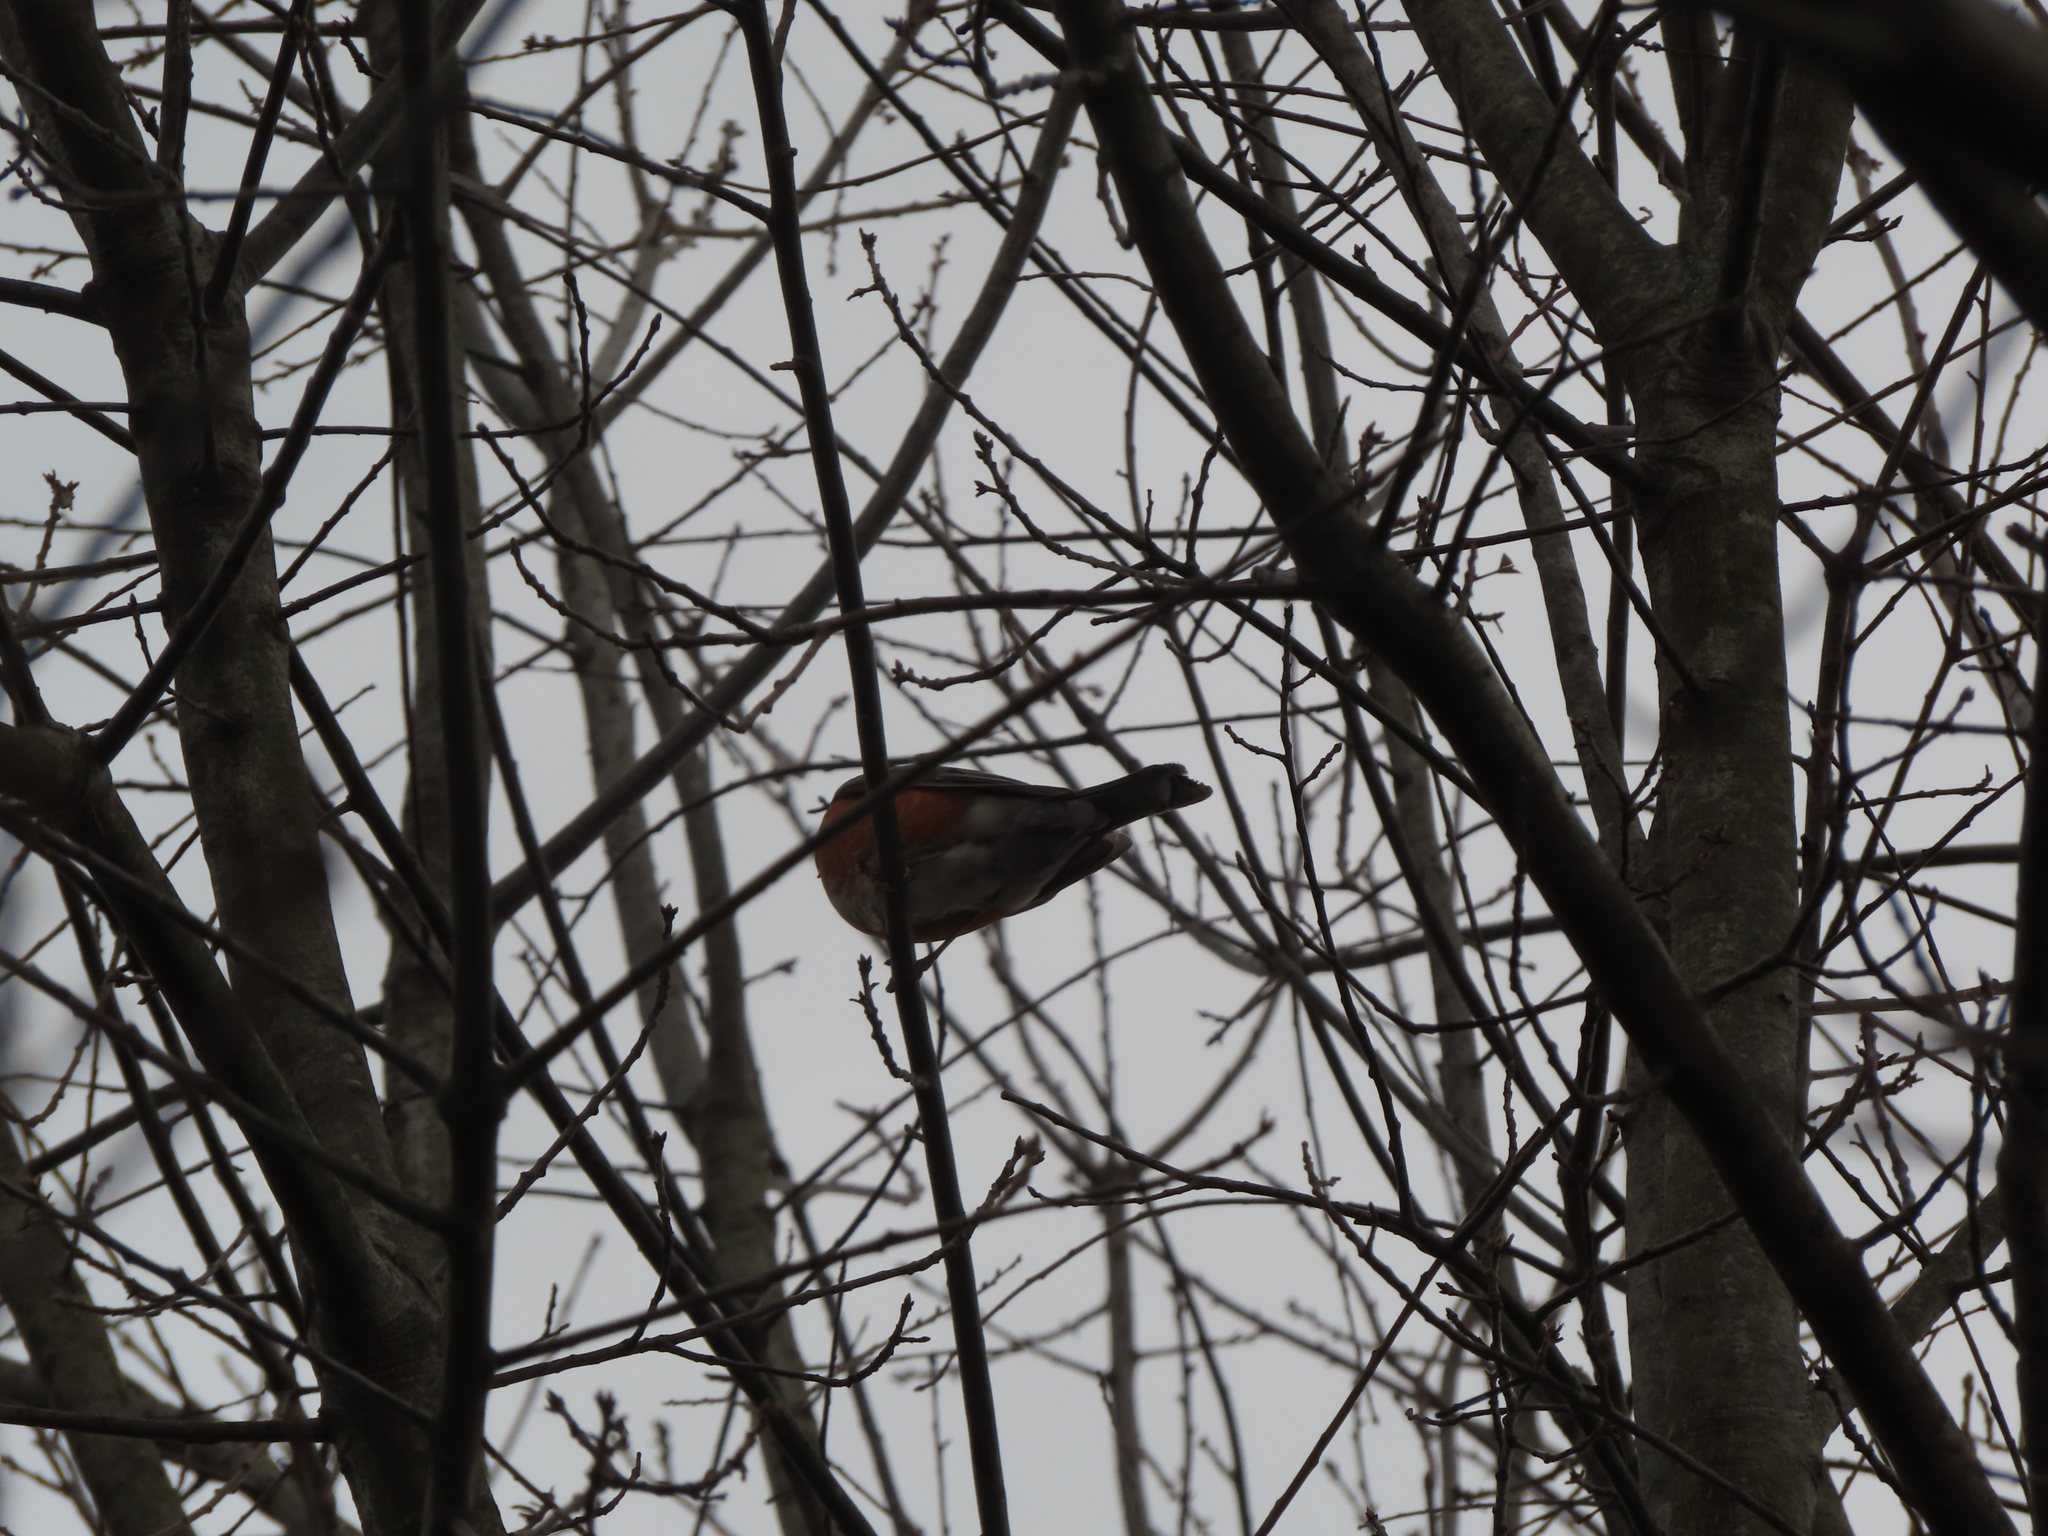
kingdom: Animalia
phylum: Chordata
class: Aves
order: Passeriformes
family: Turdidae
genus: Turdus
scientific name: Turdus migratorius
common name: American robin
